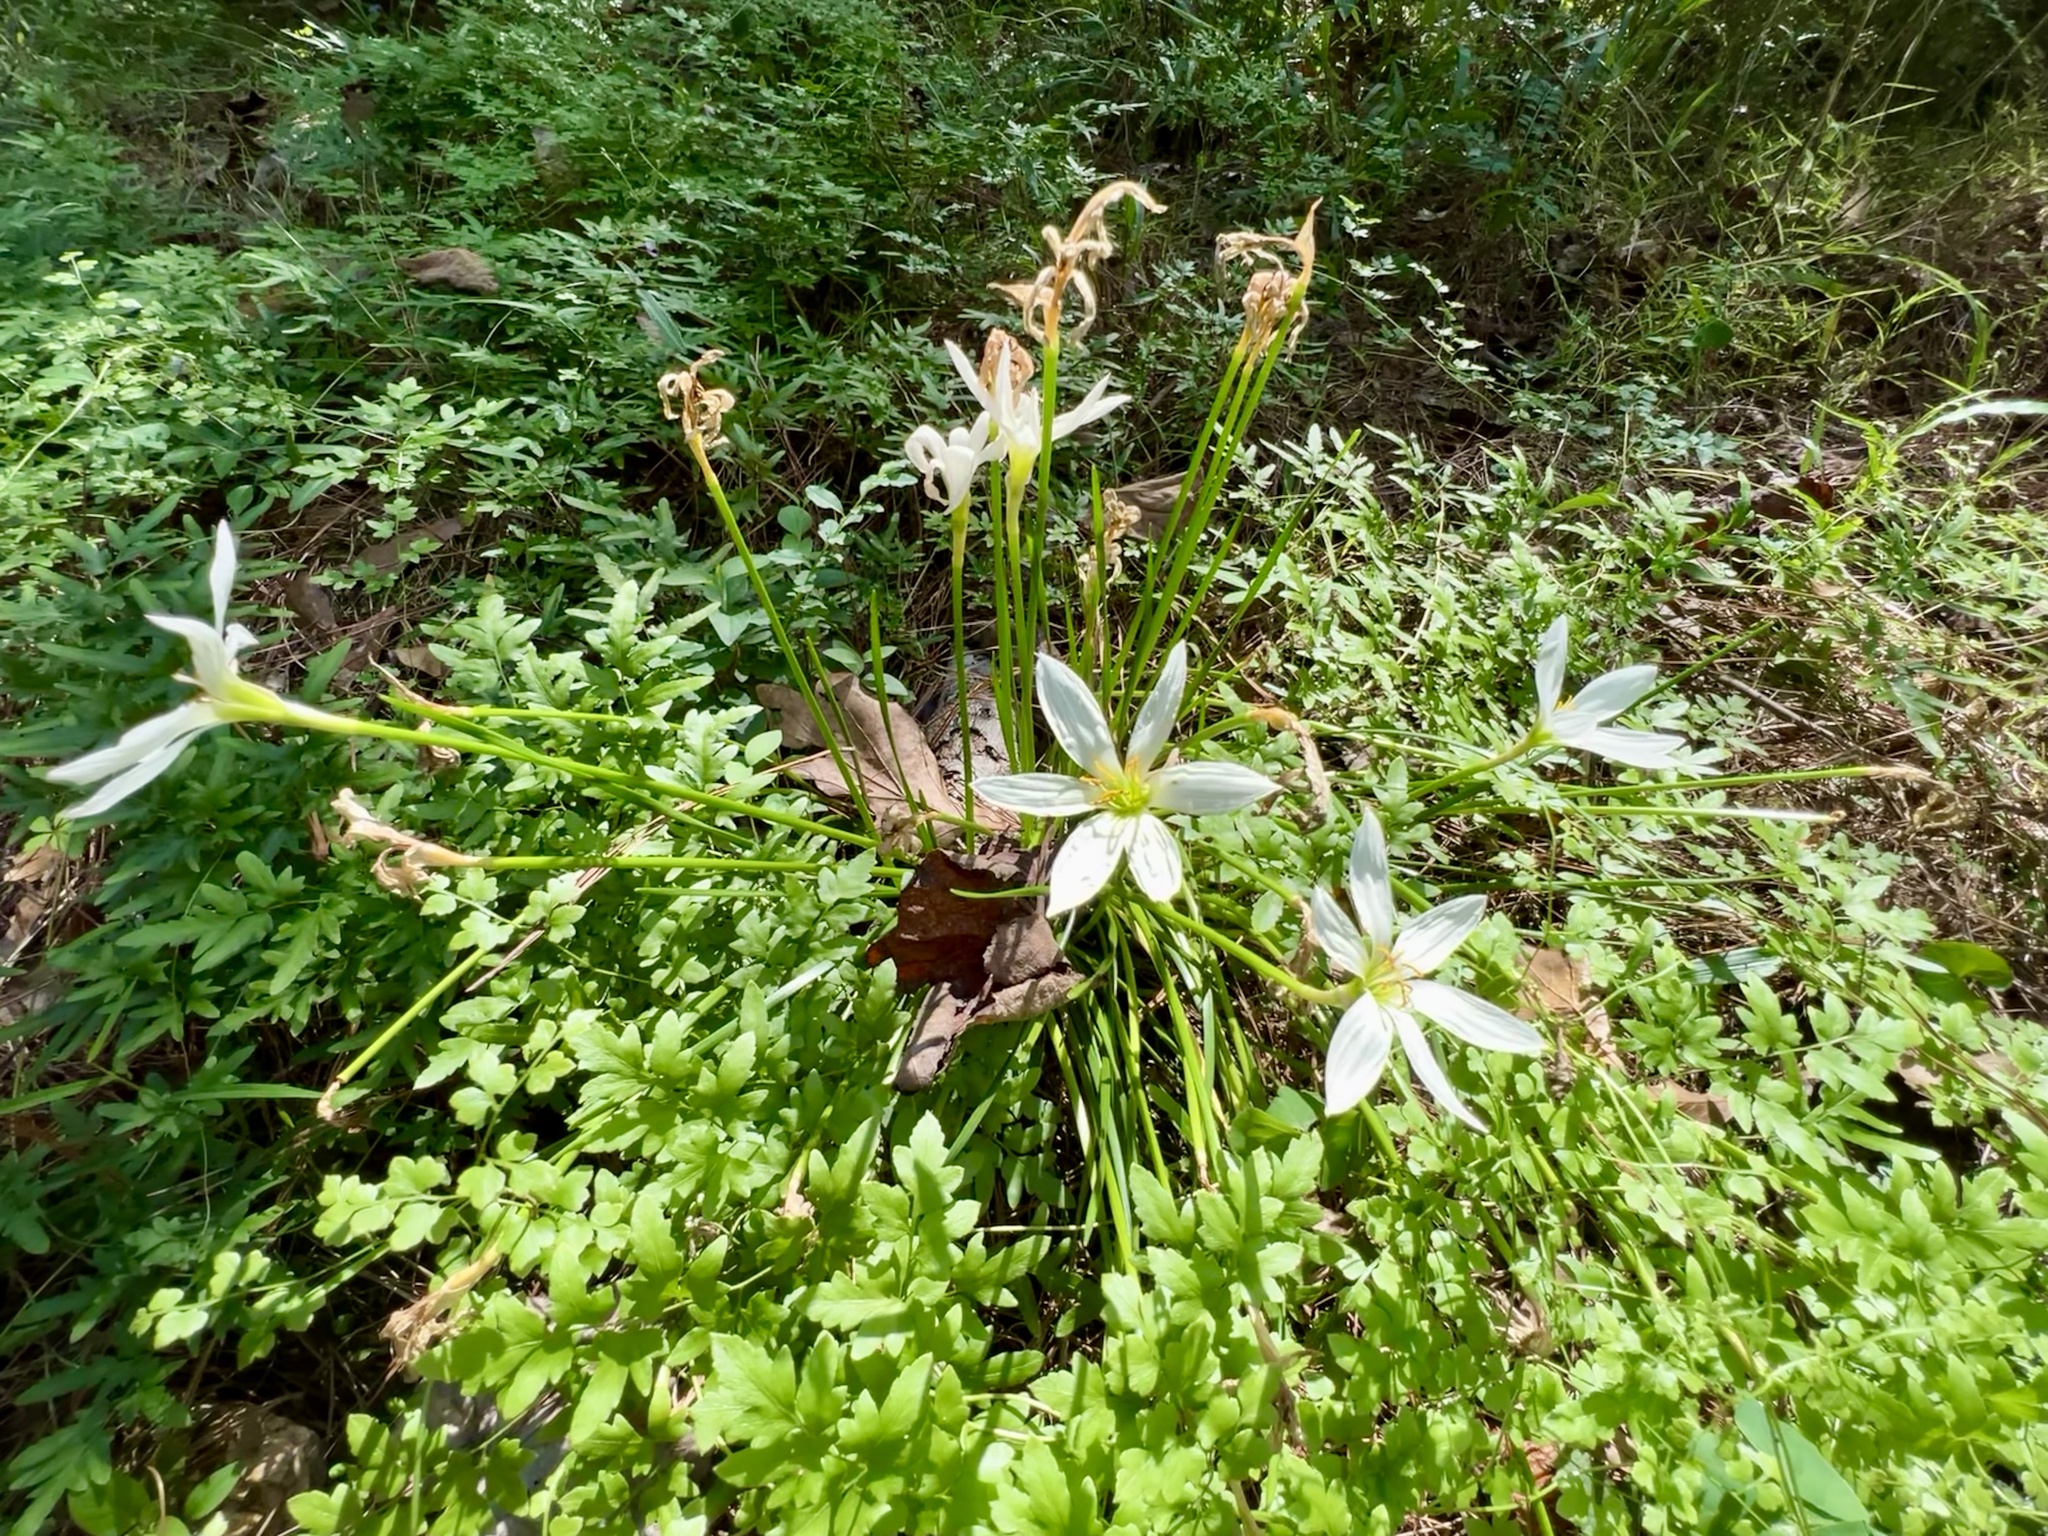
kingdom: Plantae
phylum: Tracheophyta
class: Liliopsida
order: Asparagales
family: Amaryllidaceae
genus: Zephyranthes
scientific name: Zephyranthes candida
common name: Autumn zephyrlily
